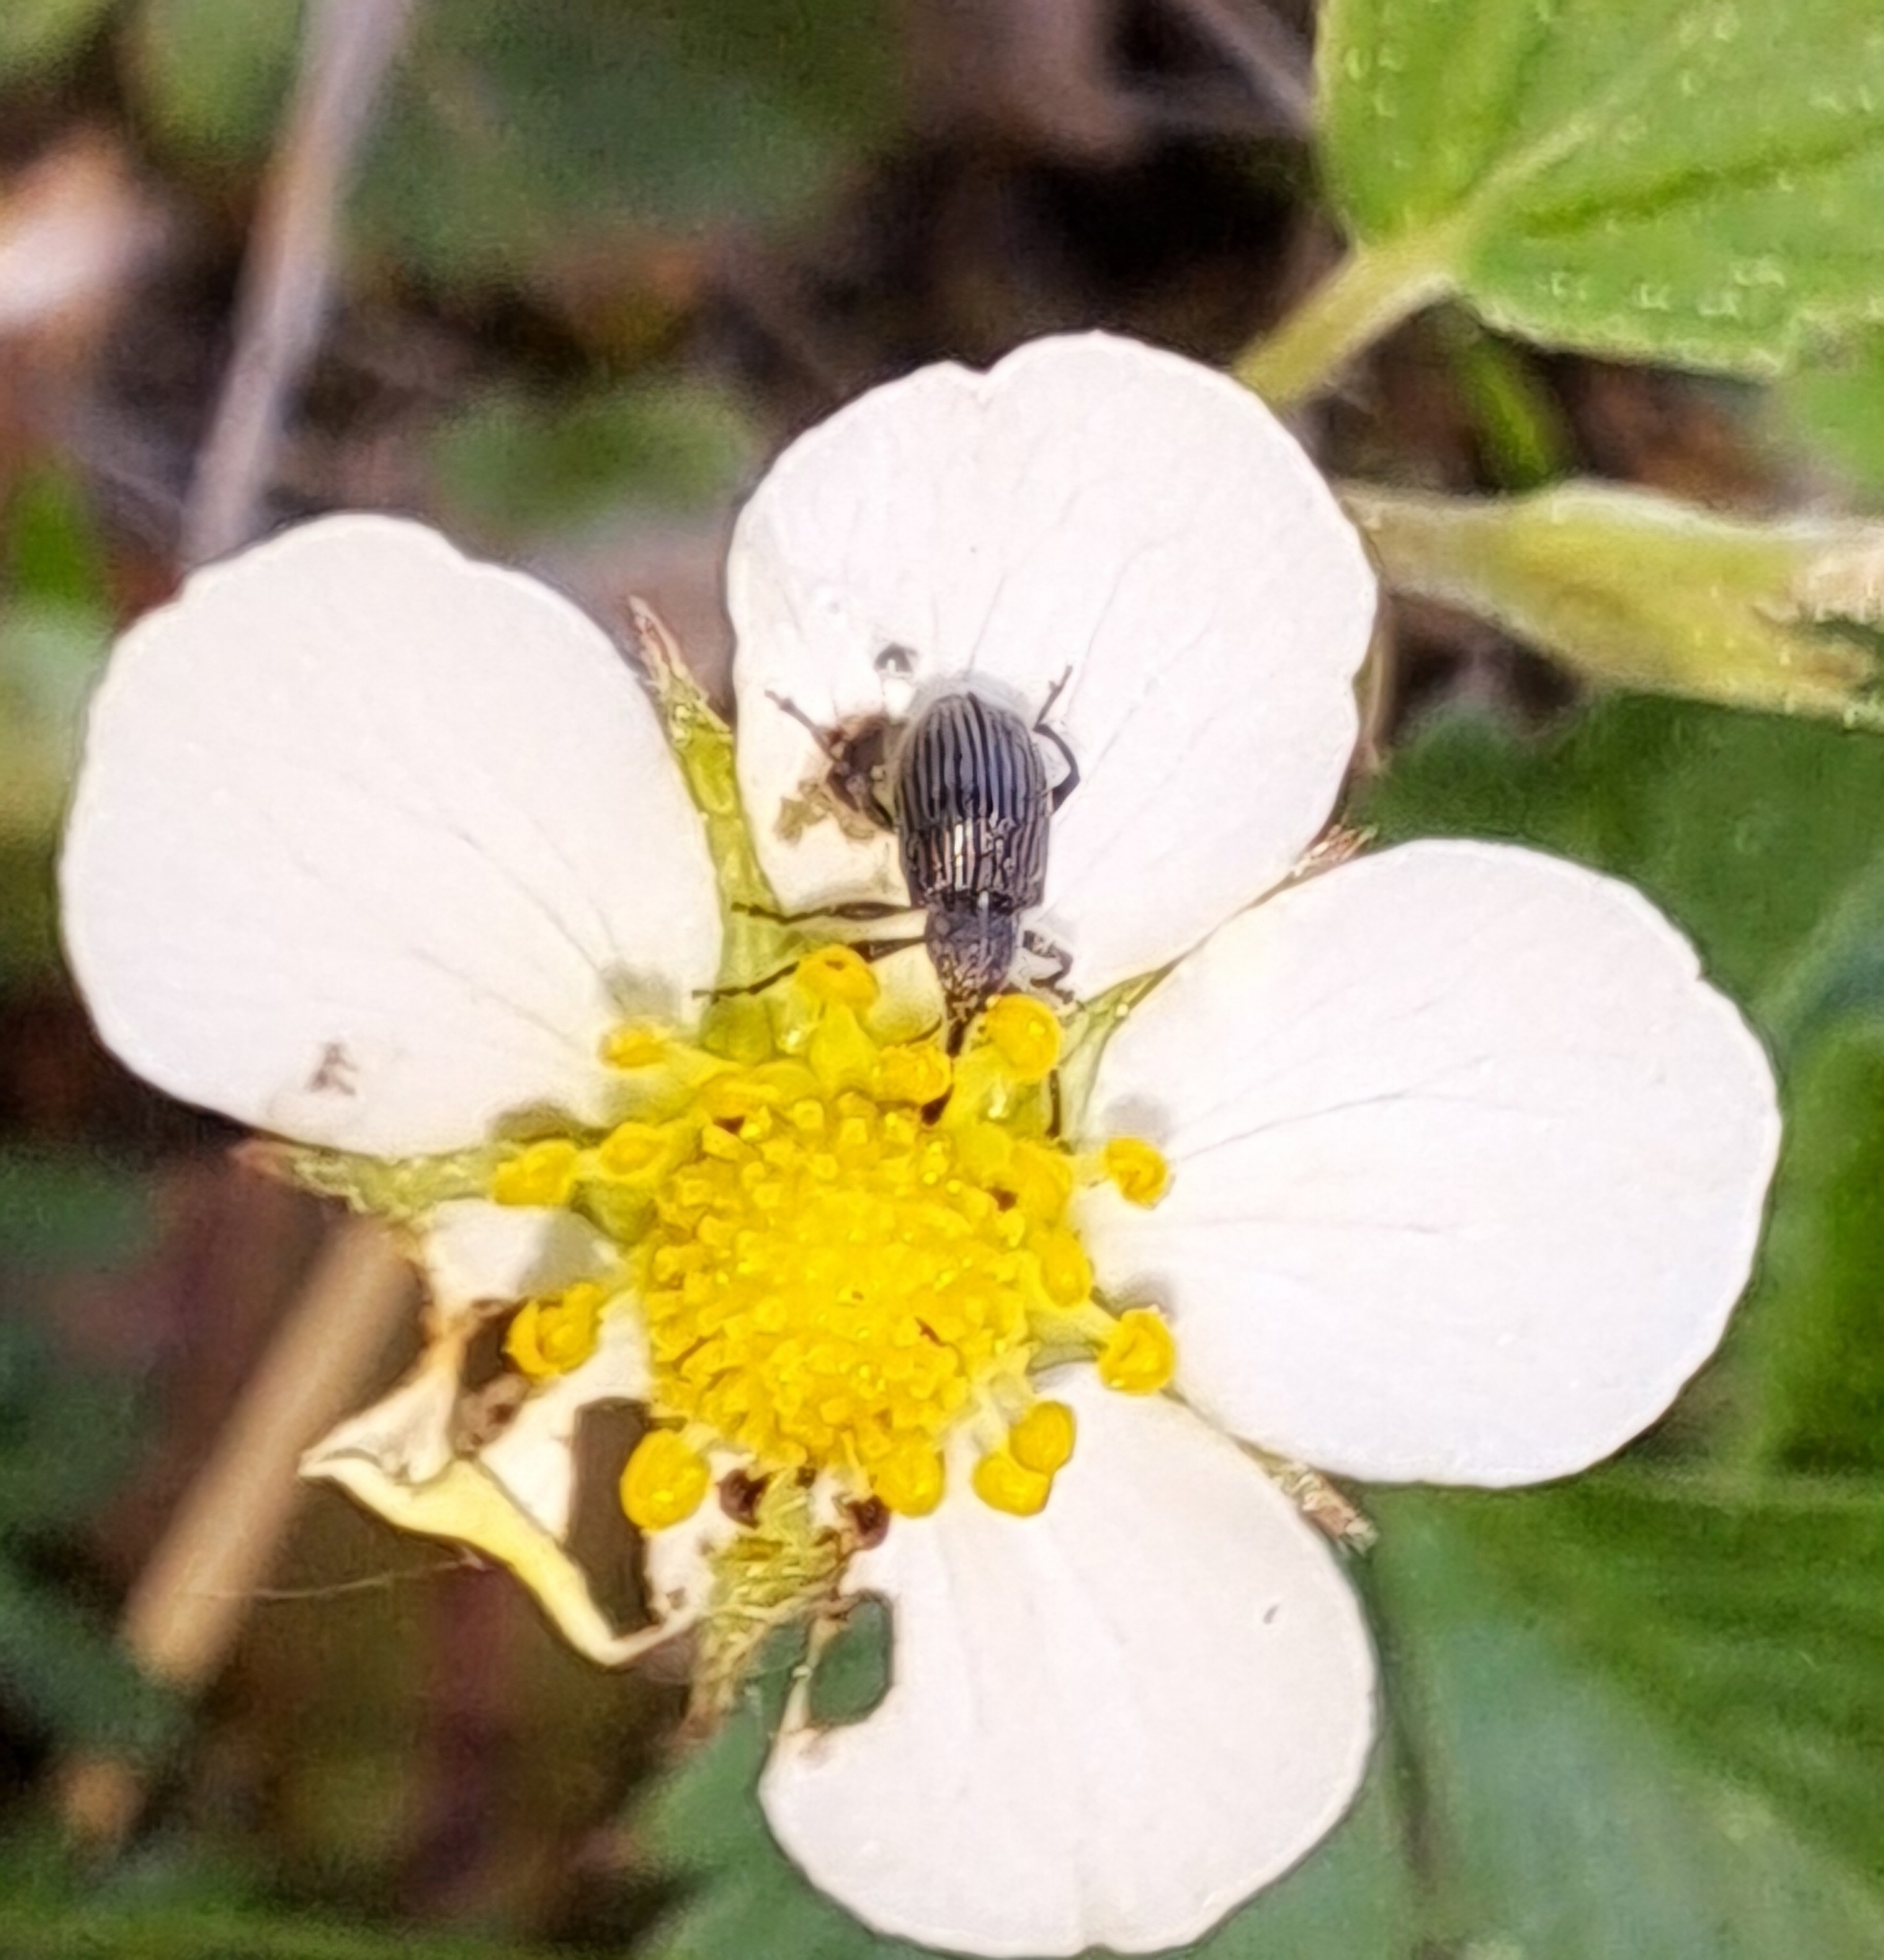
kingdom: Animalia
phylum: Arthropoda
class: Insecta
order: Coleoptera
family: Curculionidae
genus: Anthonomus
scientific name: Anthonomus rubi
